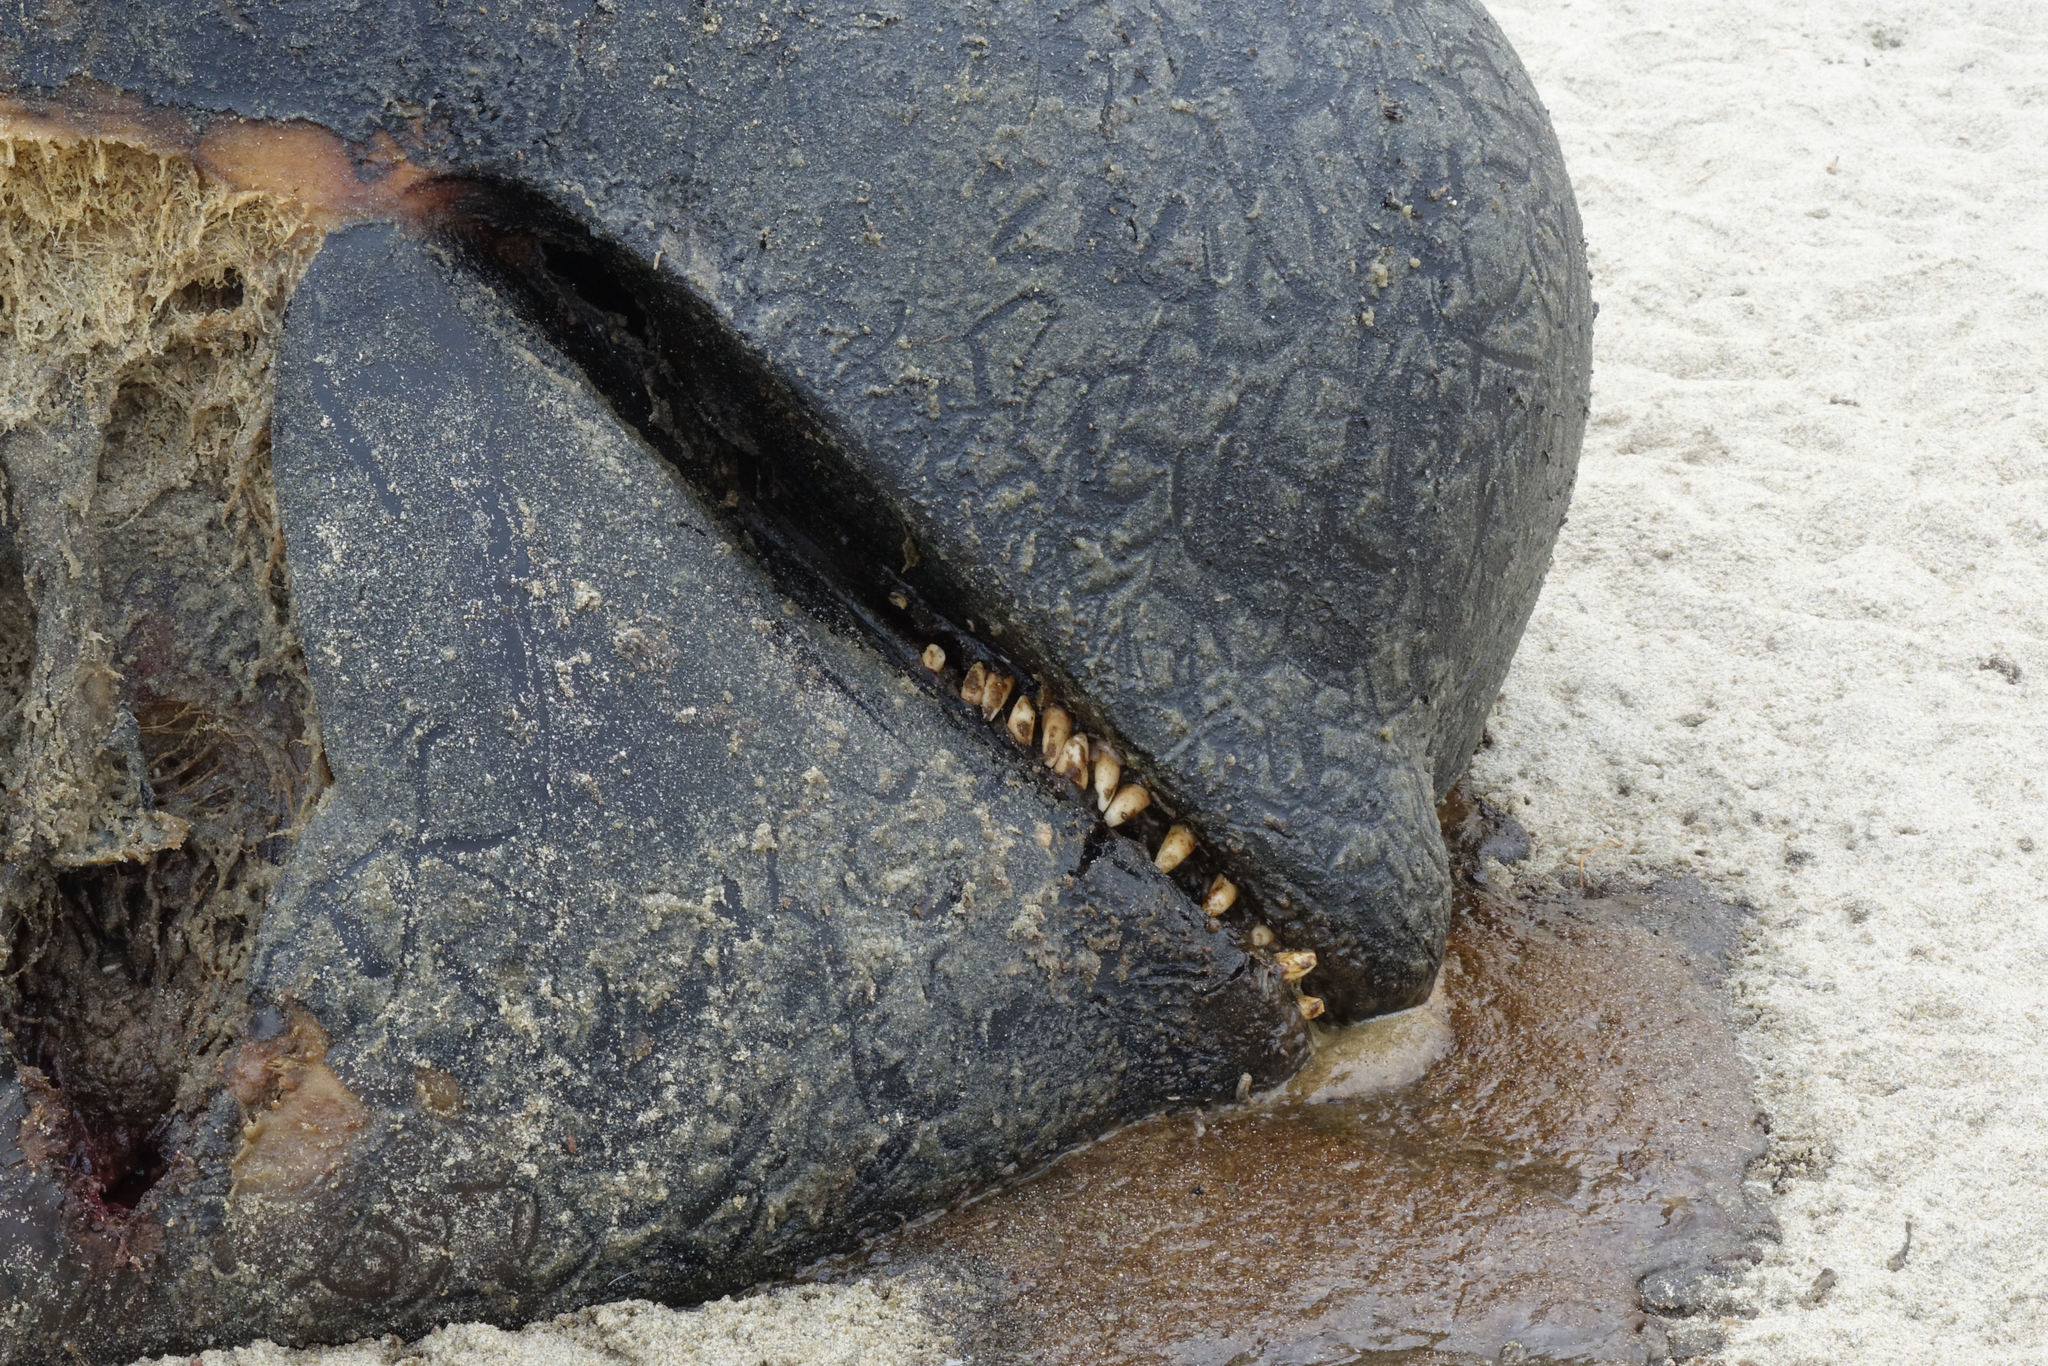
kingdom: Animalia
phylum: Chordata
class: Mammalia
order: Cetacea
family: Delphinidae
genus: Globicephala
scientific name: Globicephala melas
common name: Long-finned pilot whale
